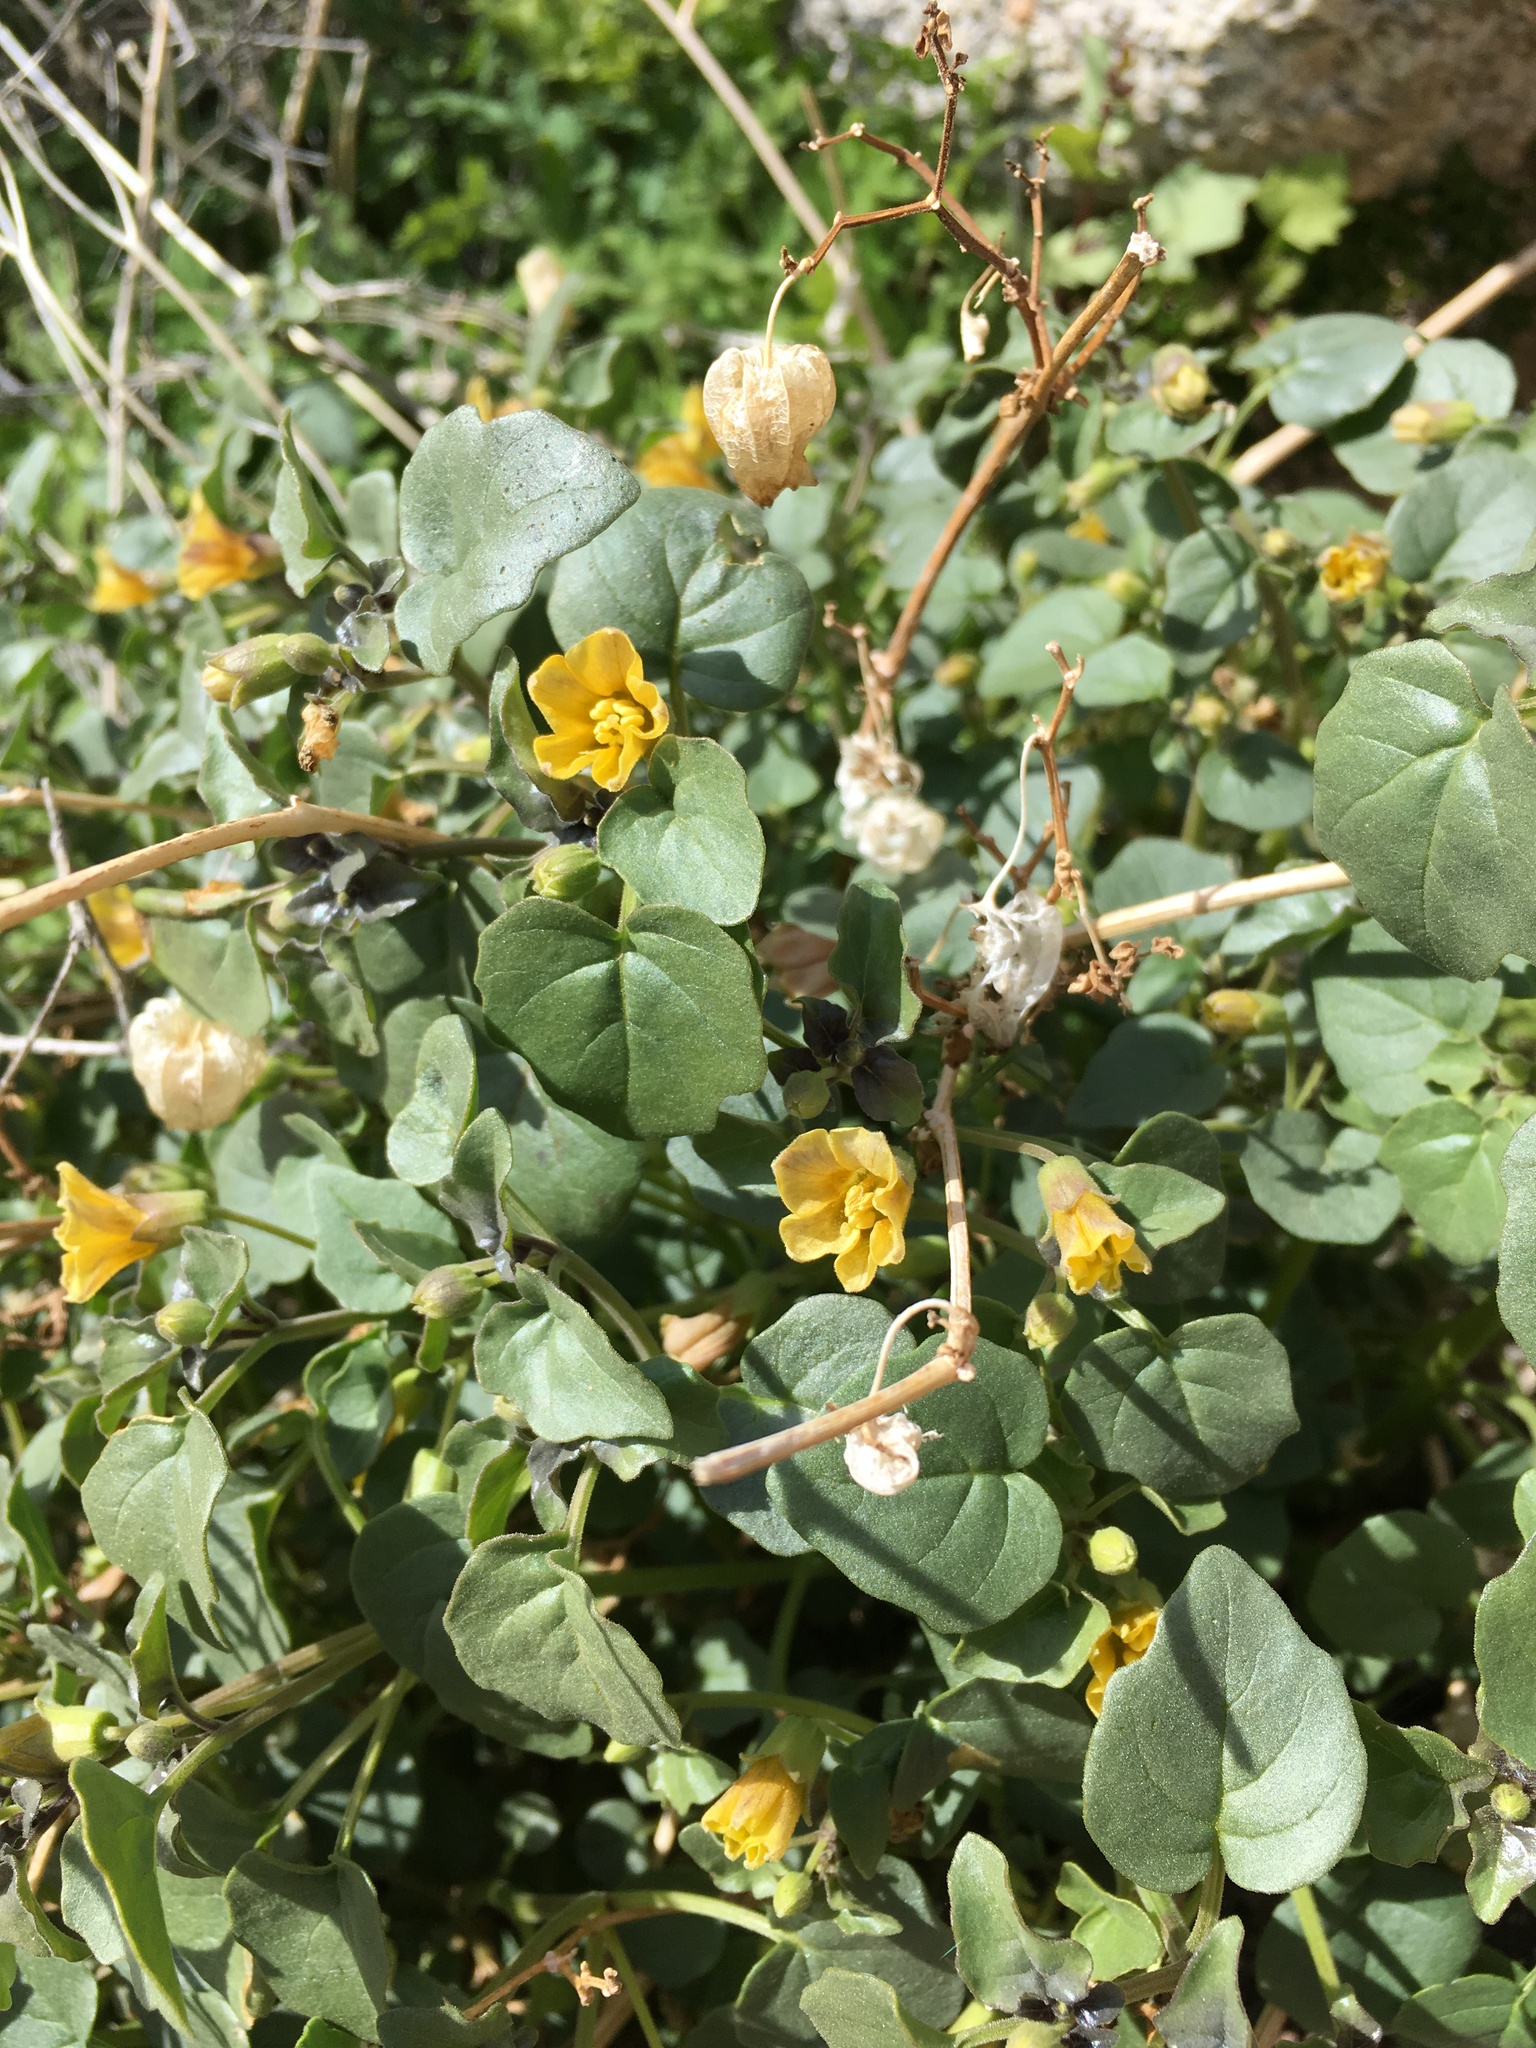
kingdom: Plantae
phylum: Tracheophyta
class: Magnoliopsida
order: Solanales
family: Solanaceae
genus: Physalis
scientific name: Physalis crassifolia
